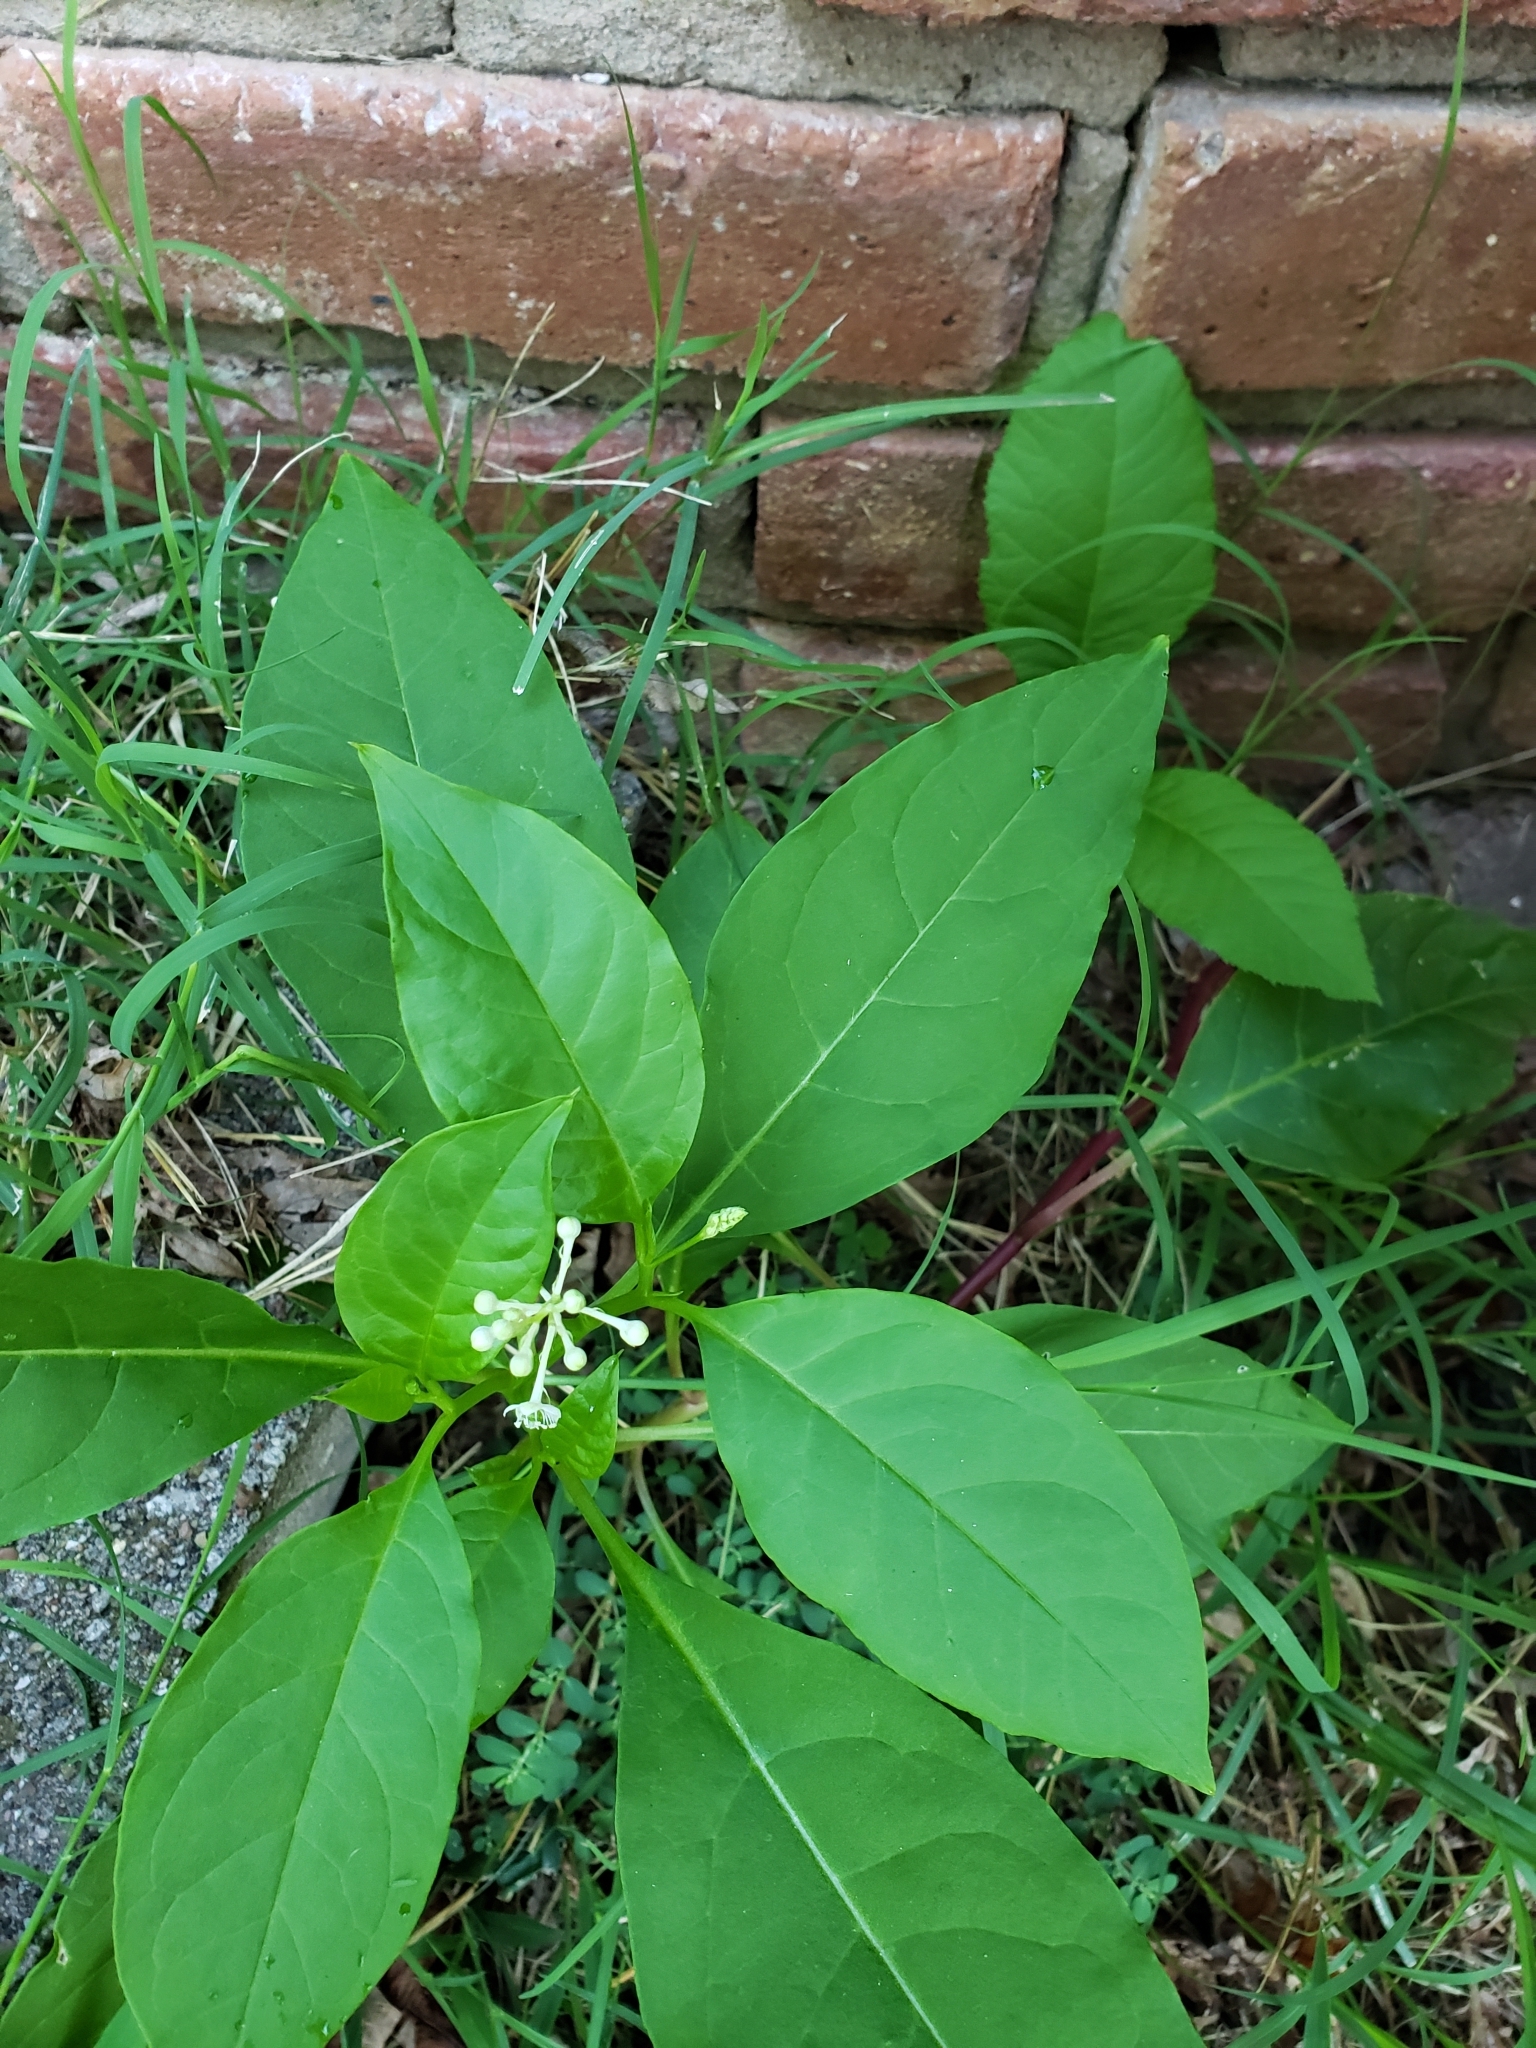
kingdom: Plantae
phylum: Tracheophyta
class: Magnoliopsida
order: Caryophyllales
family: Phytolaccaceae
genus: Phytolacca
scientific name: Phytolacca americana
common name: American pokeweed
